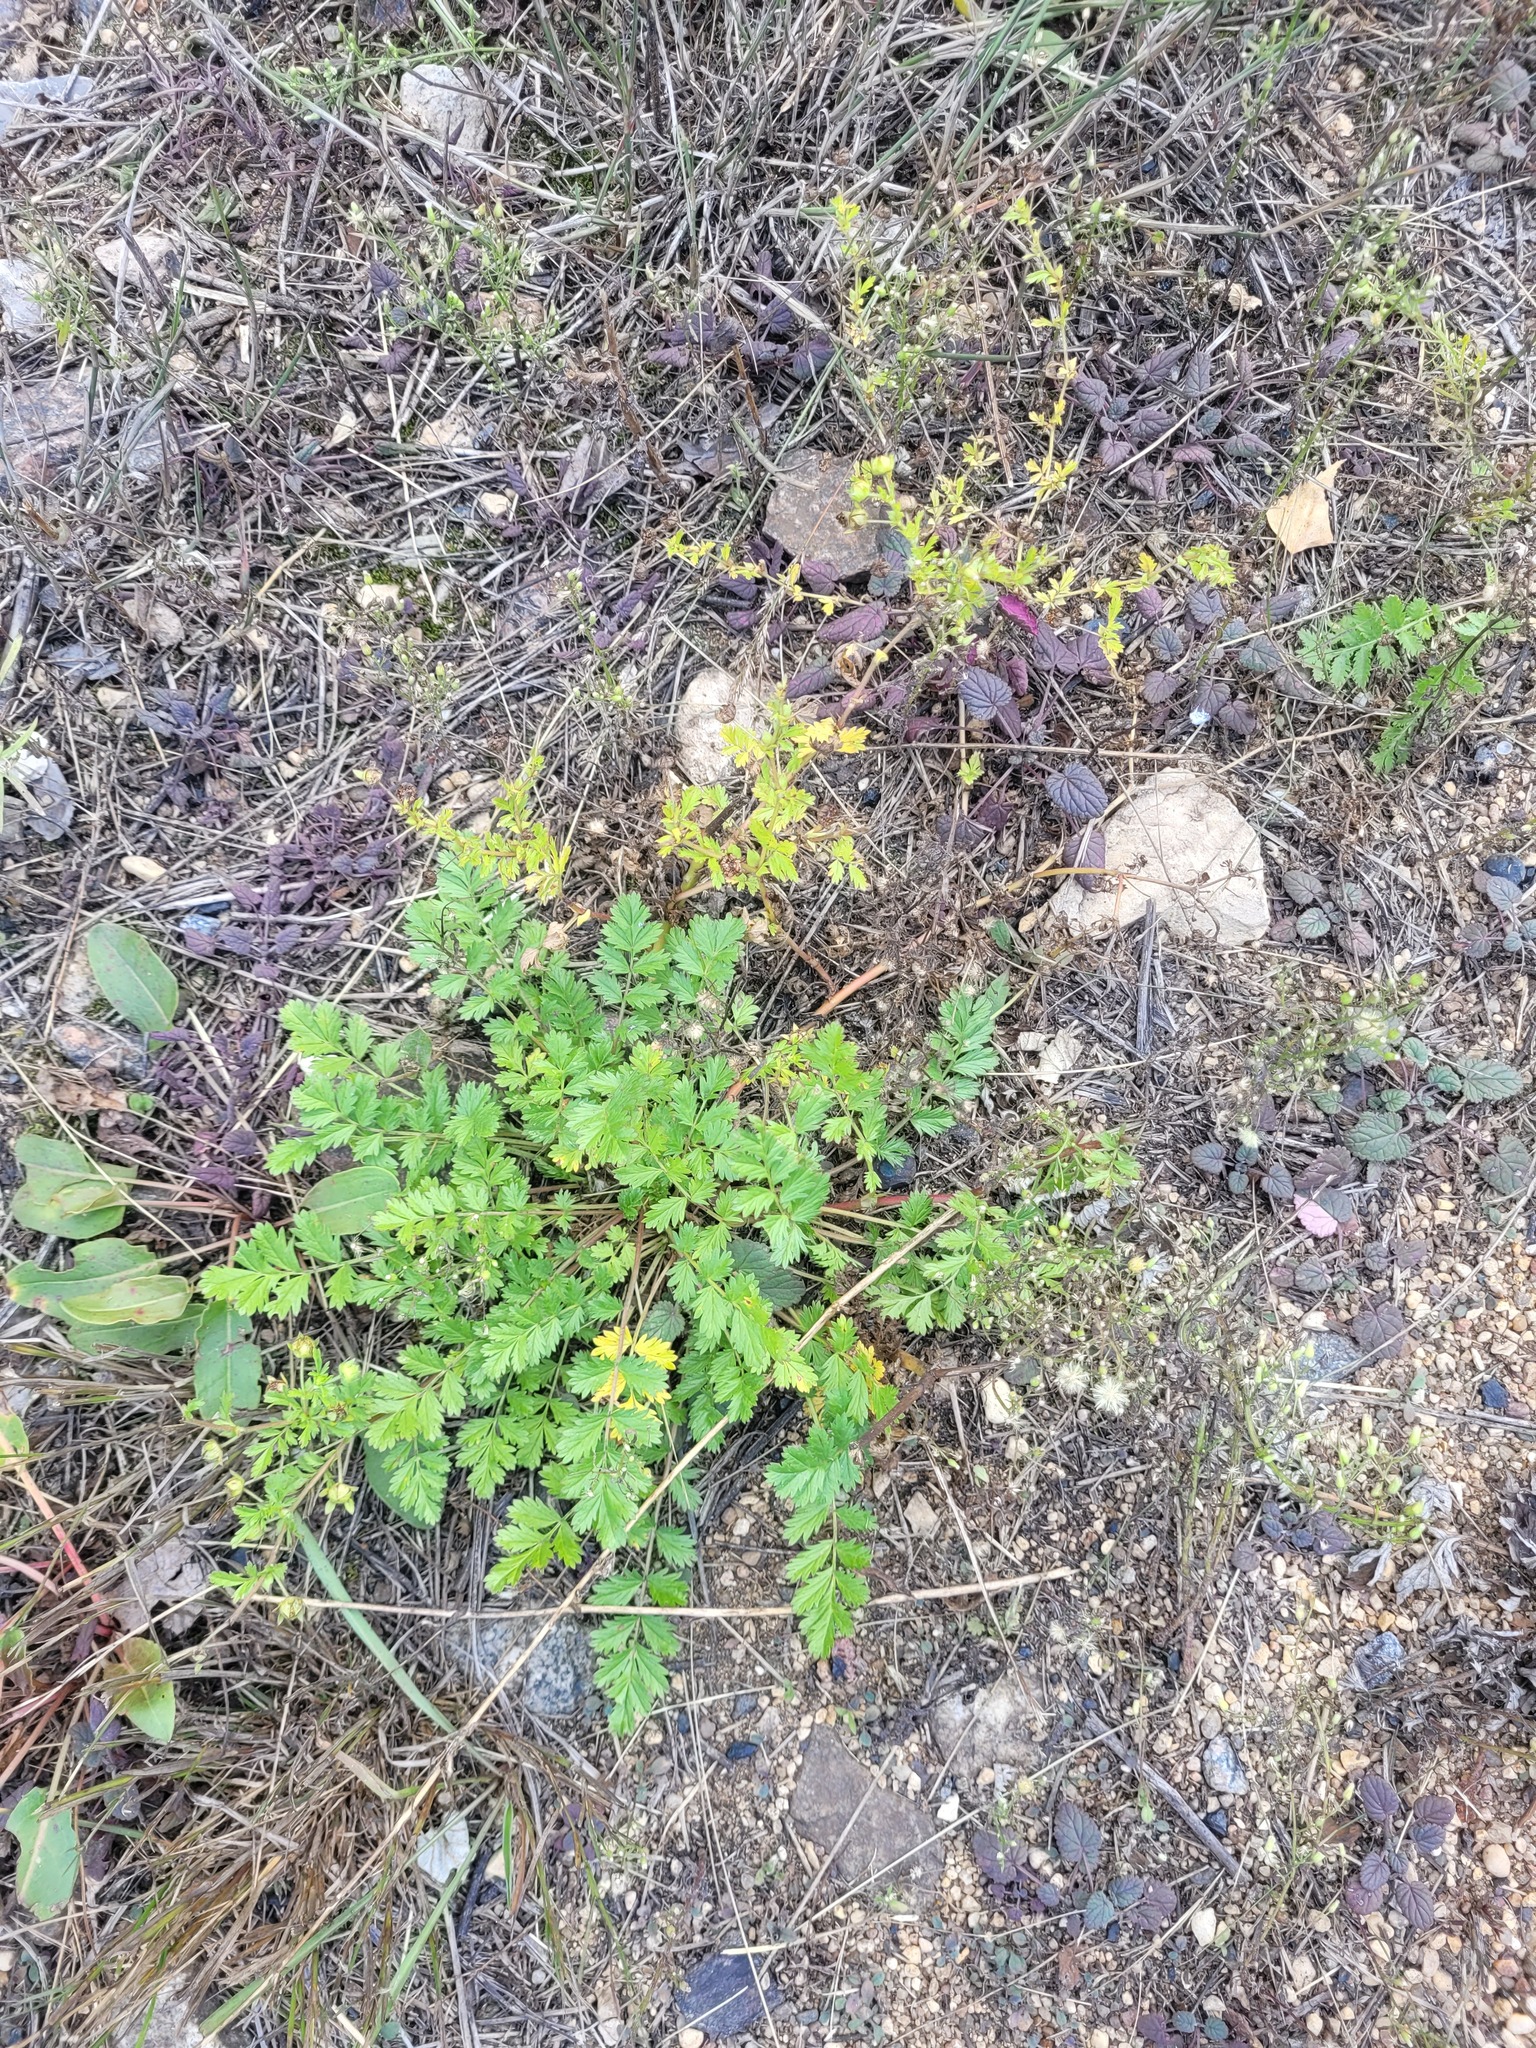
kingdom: Plantae
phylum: Tracheophyta
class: Magnoliopsida
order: Rosales
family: Rosaceae
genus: Potentilla
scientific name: Potentilla supina
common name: Prostrate cinquefoil
